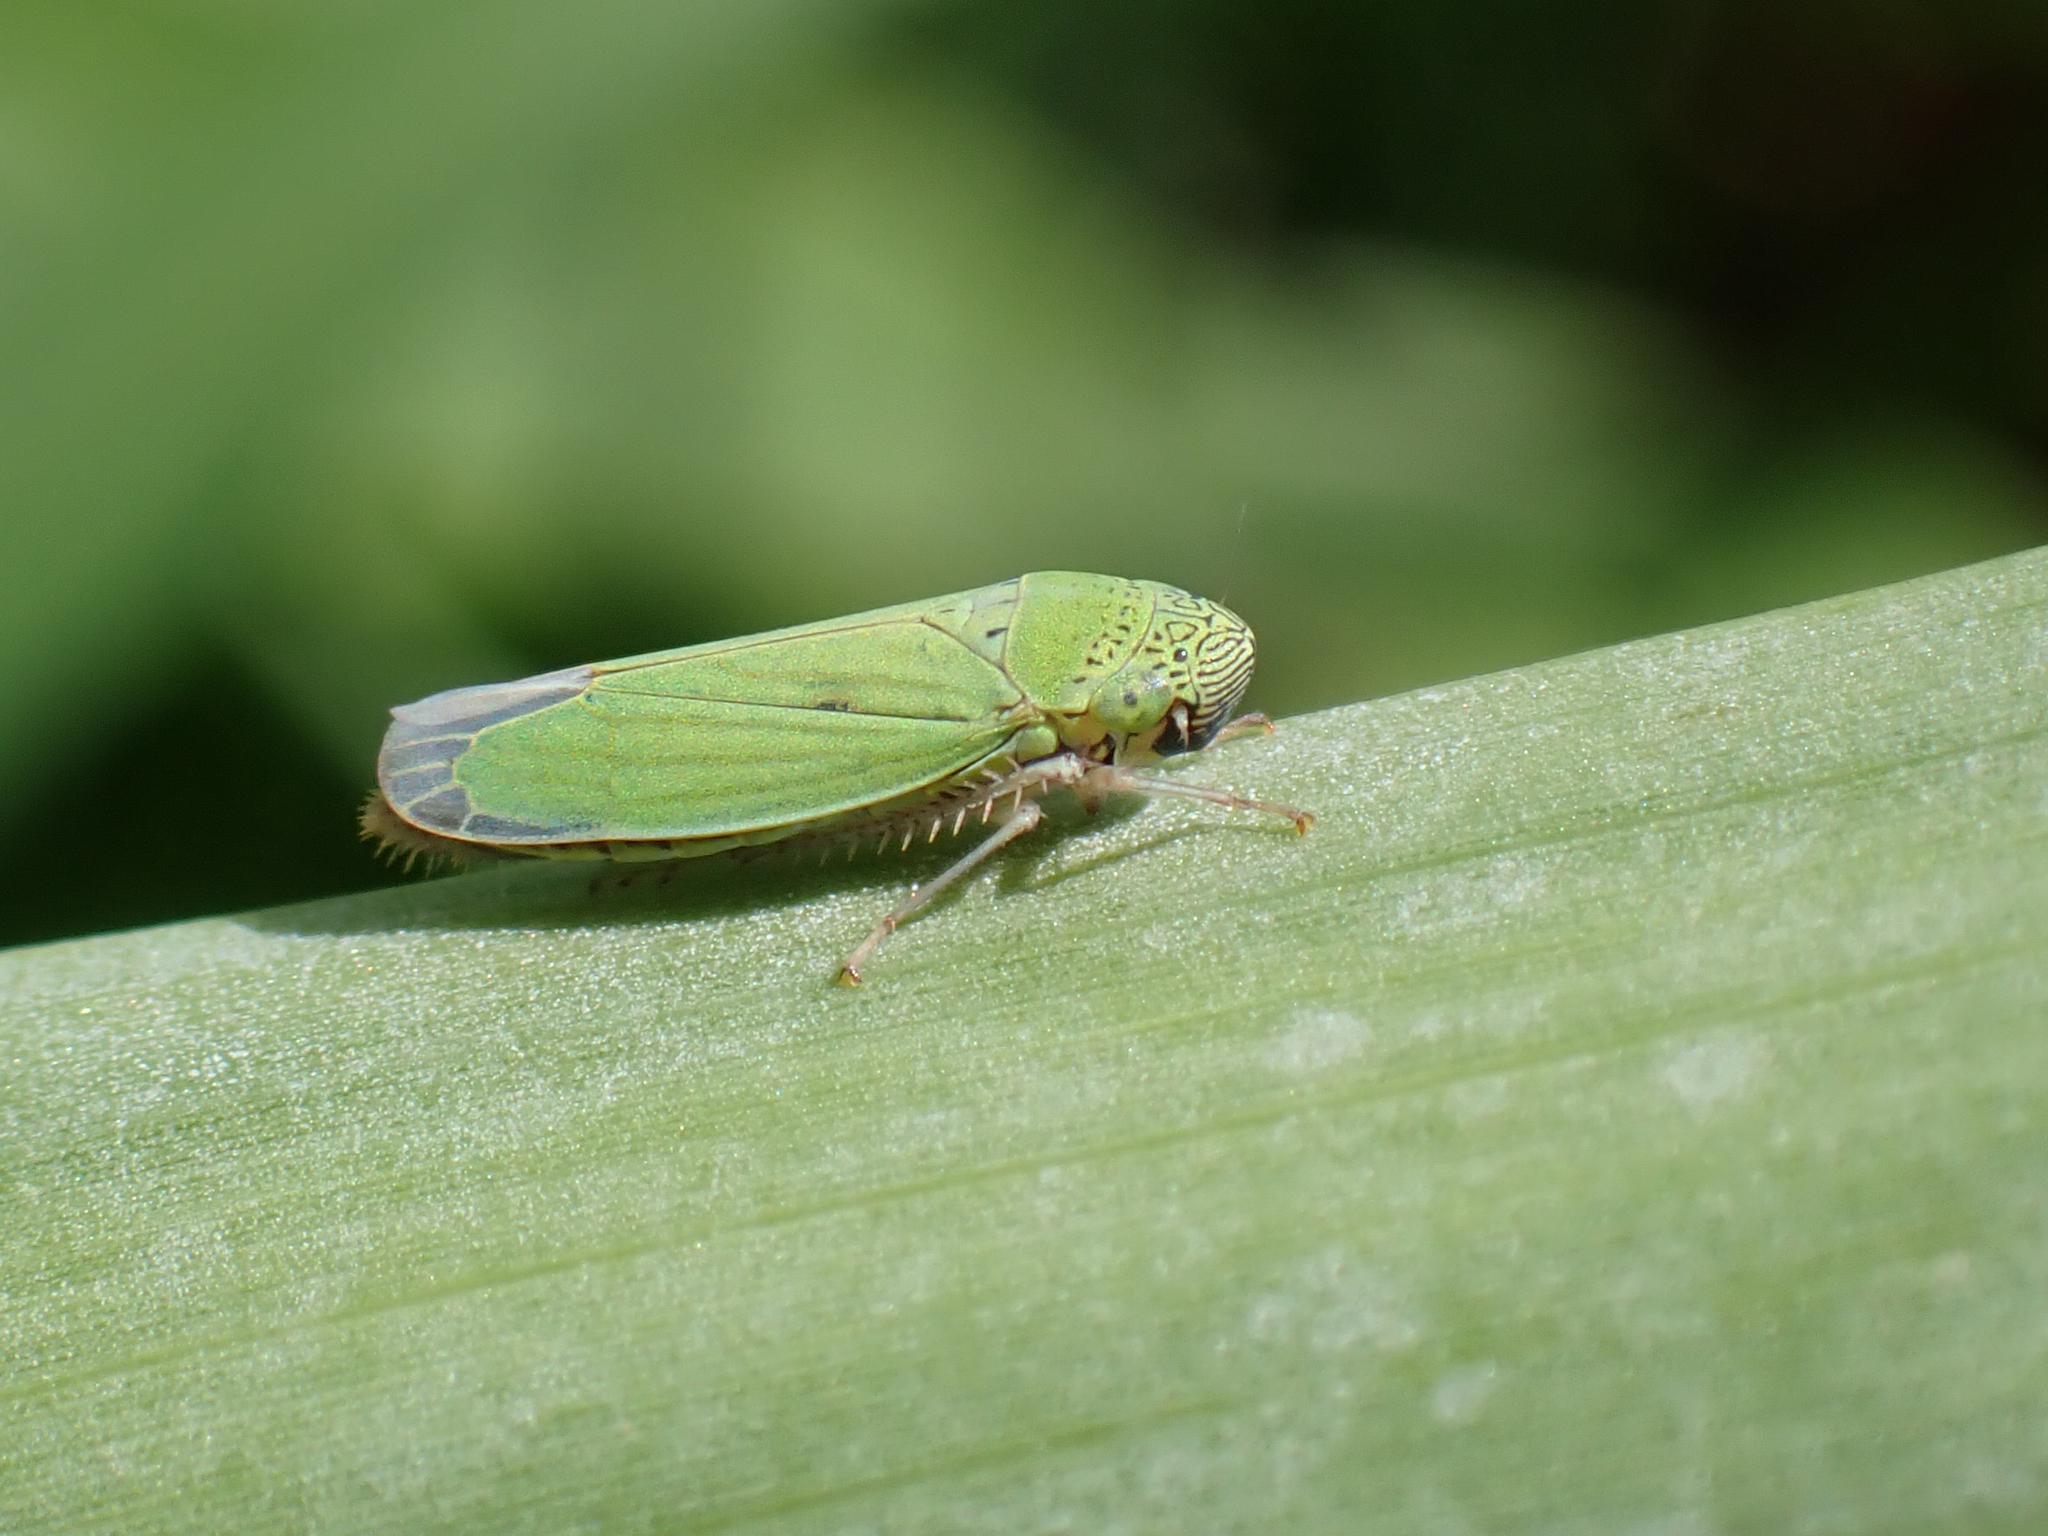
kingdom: Animalia
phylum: Arthropoda
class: Insecta
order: Hemiptera
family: Cicadellidae
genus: Hortensia
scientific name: Hortensia similis
